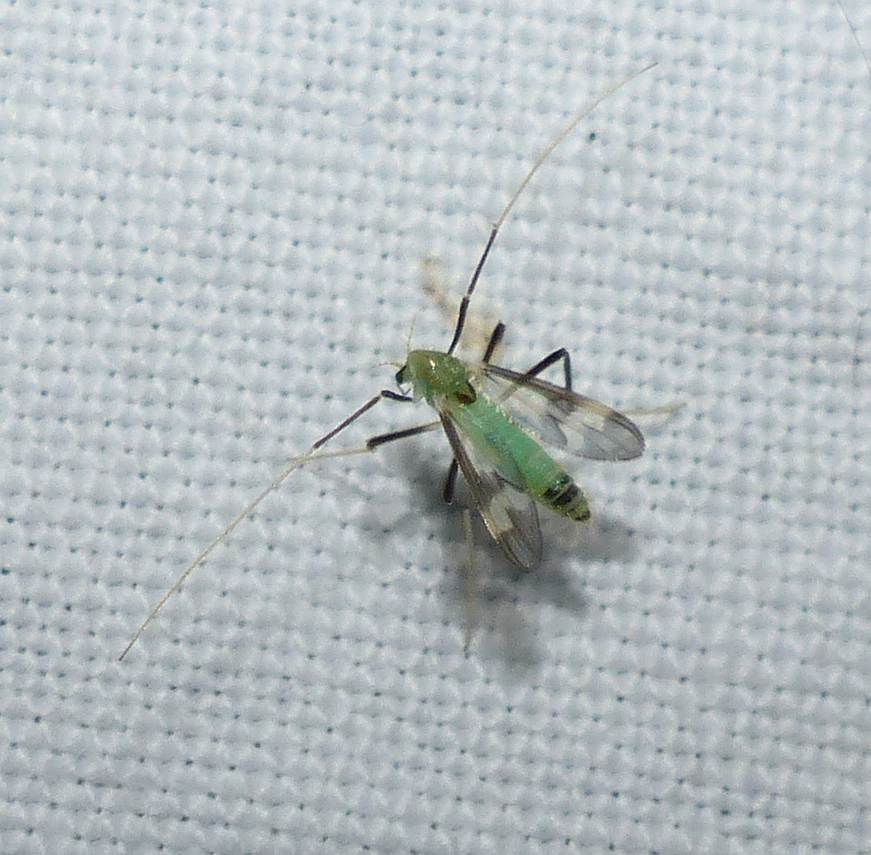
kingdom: Animalia
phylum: Arthropoda
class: Insecta
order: Diptera
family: Chironomidae
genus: Stenochironomus
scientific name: Stenochironomus hilaris
